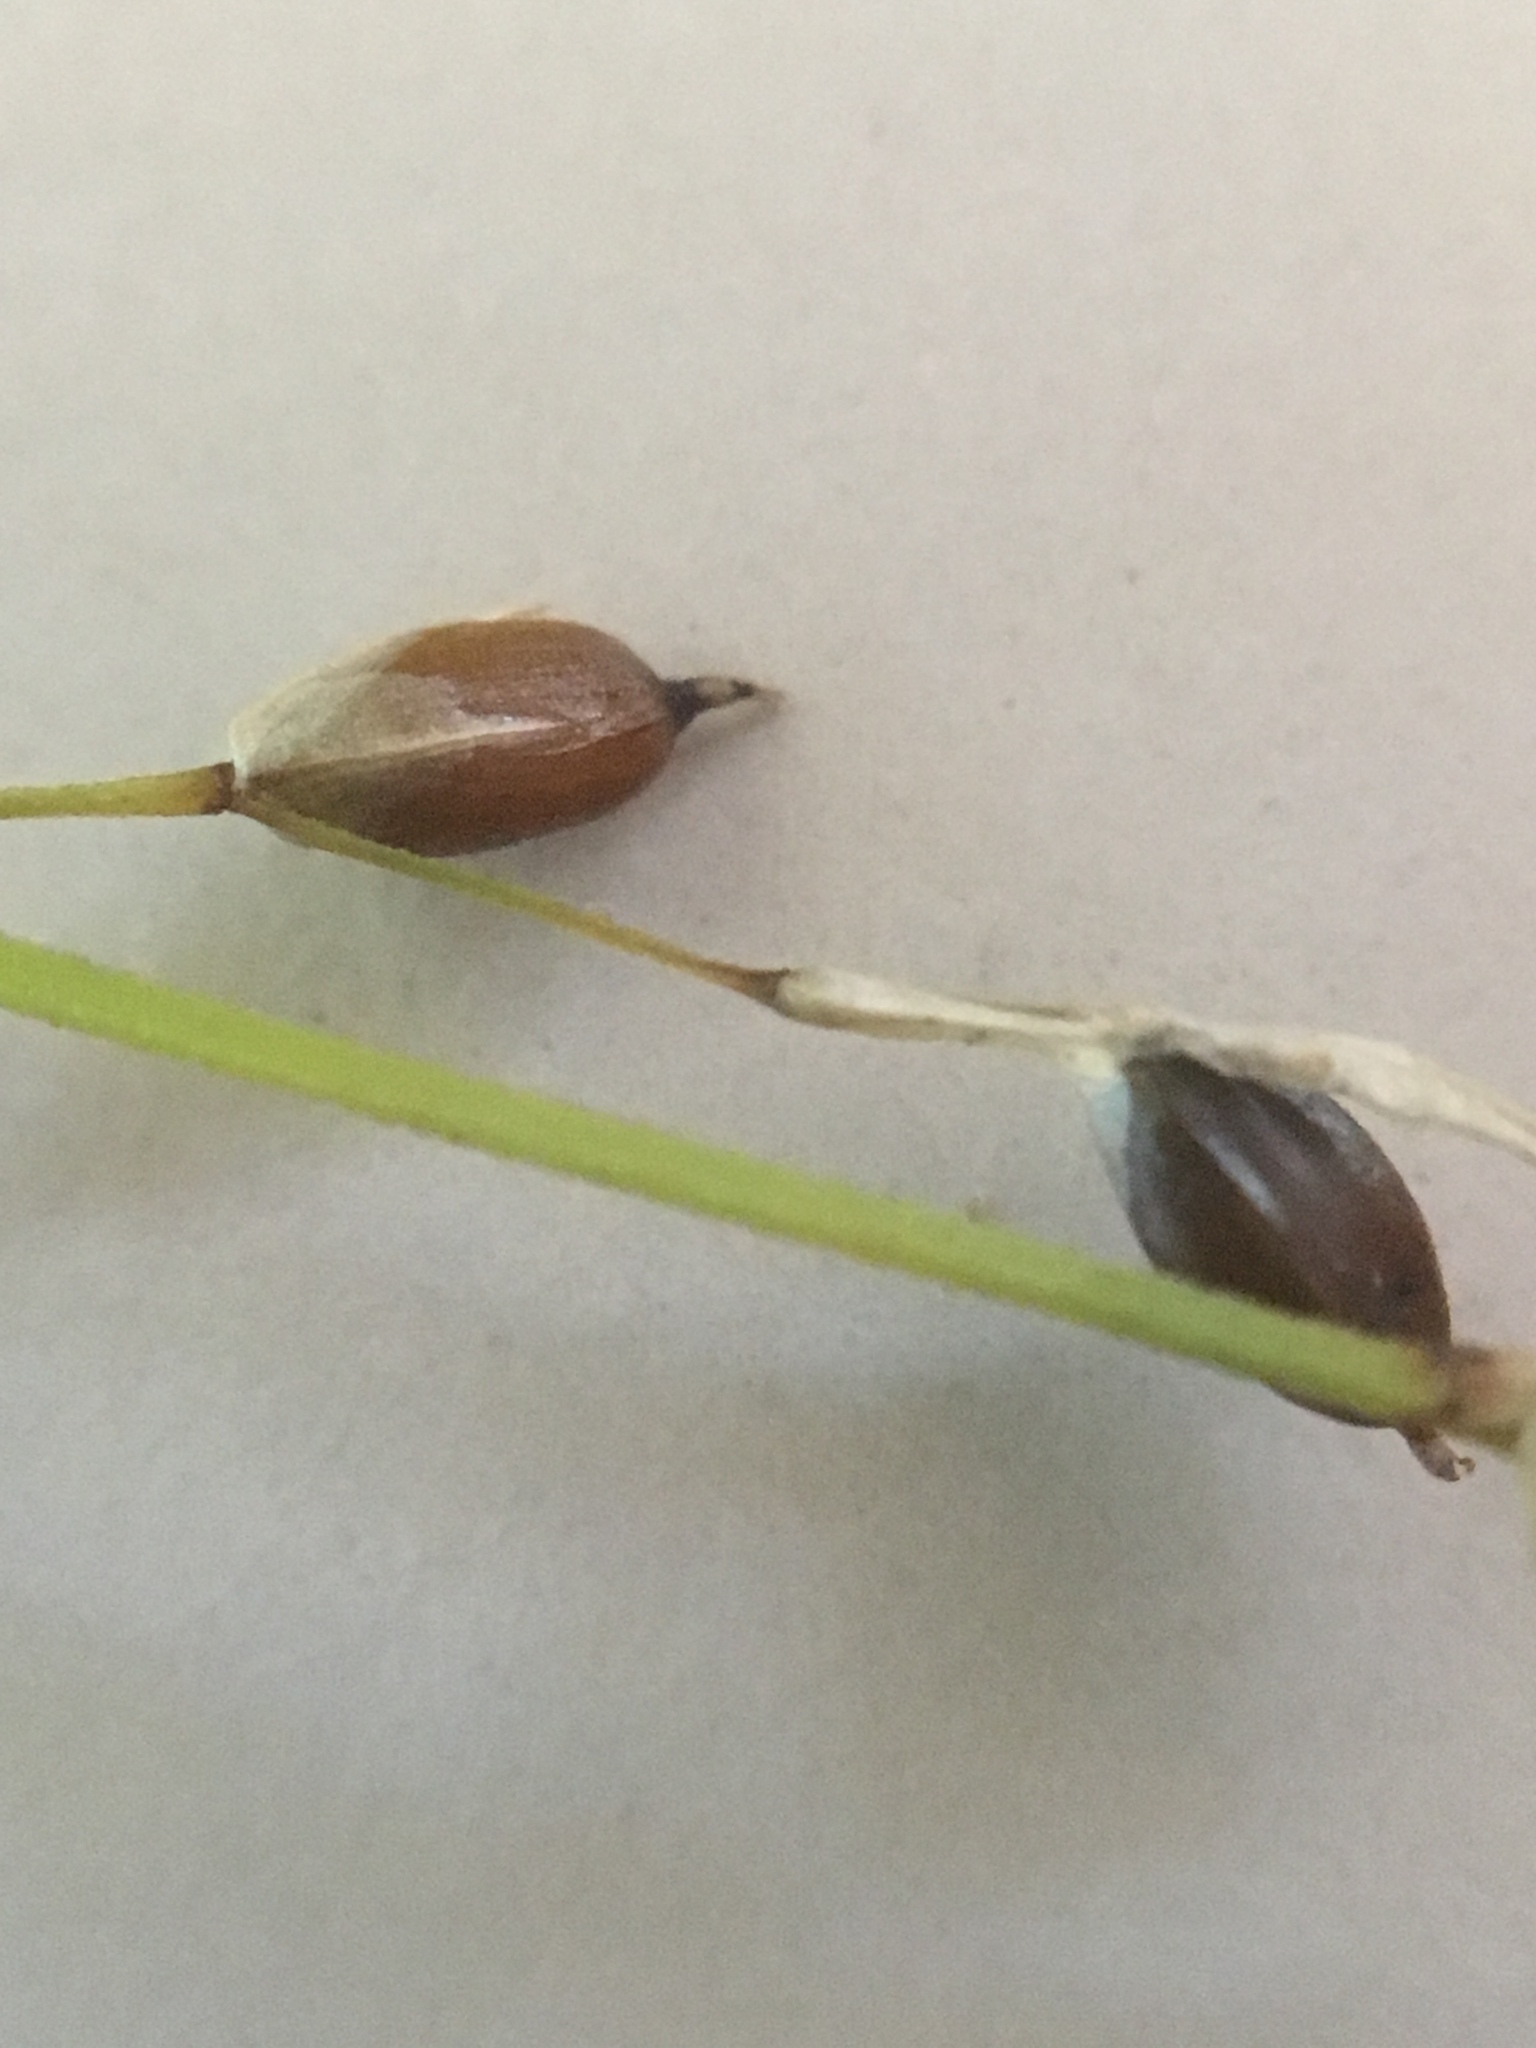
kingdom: Plantae
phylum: Tracheophyta
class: Liliopsida
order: Poales
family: Cyperaceae
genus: Carex
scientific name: Carex disperma
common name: Short-leaved sedge
